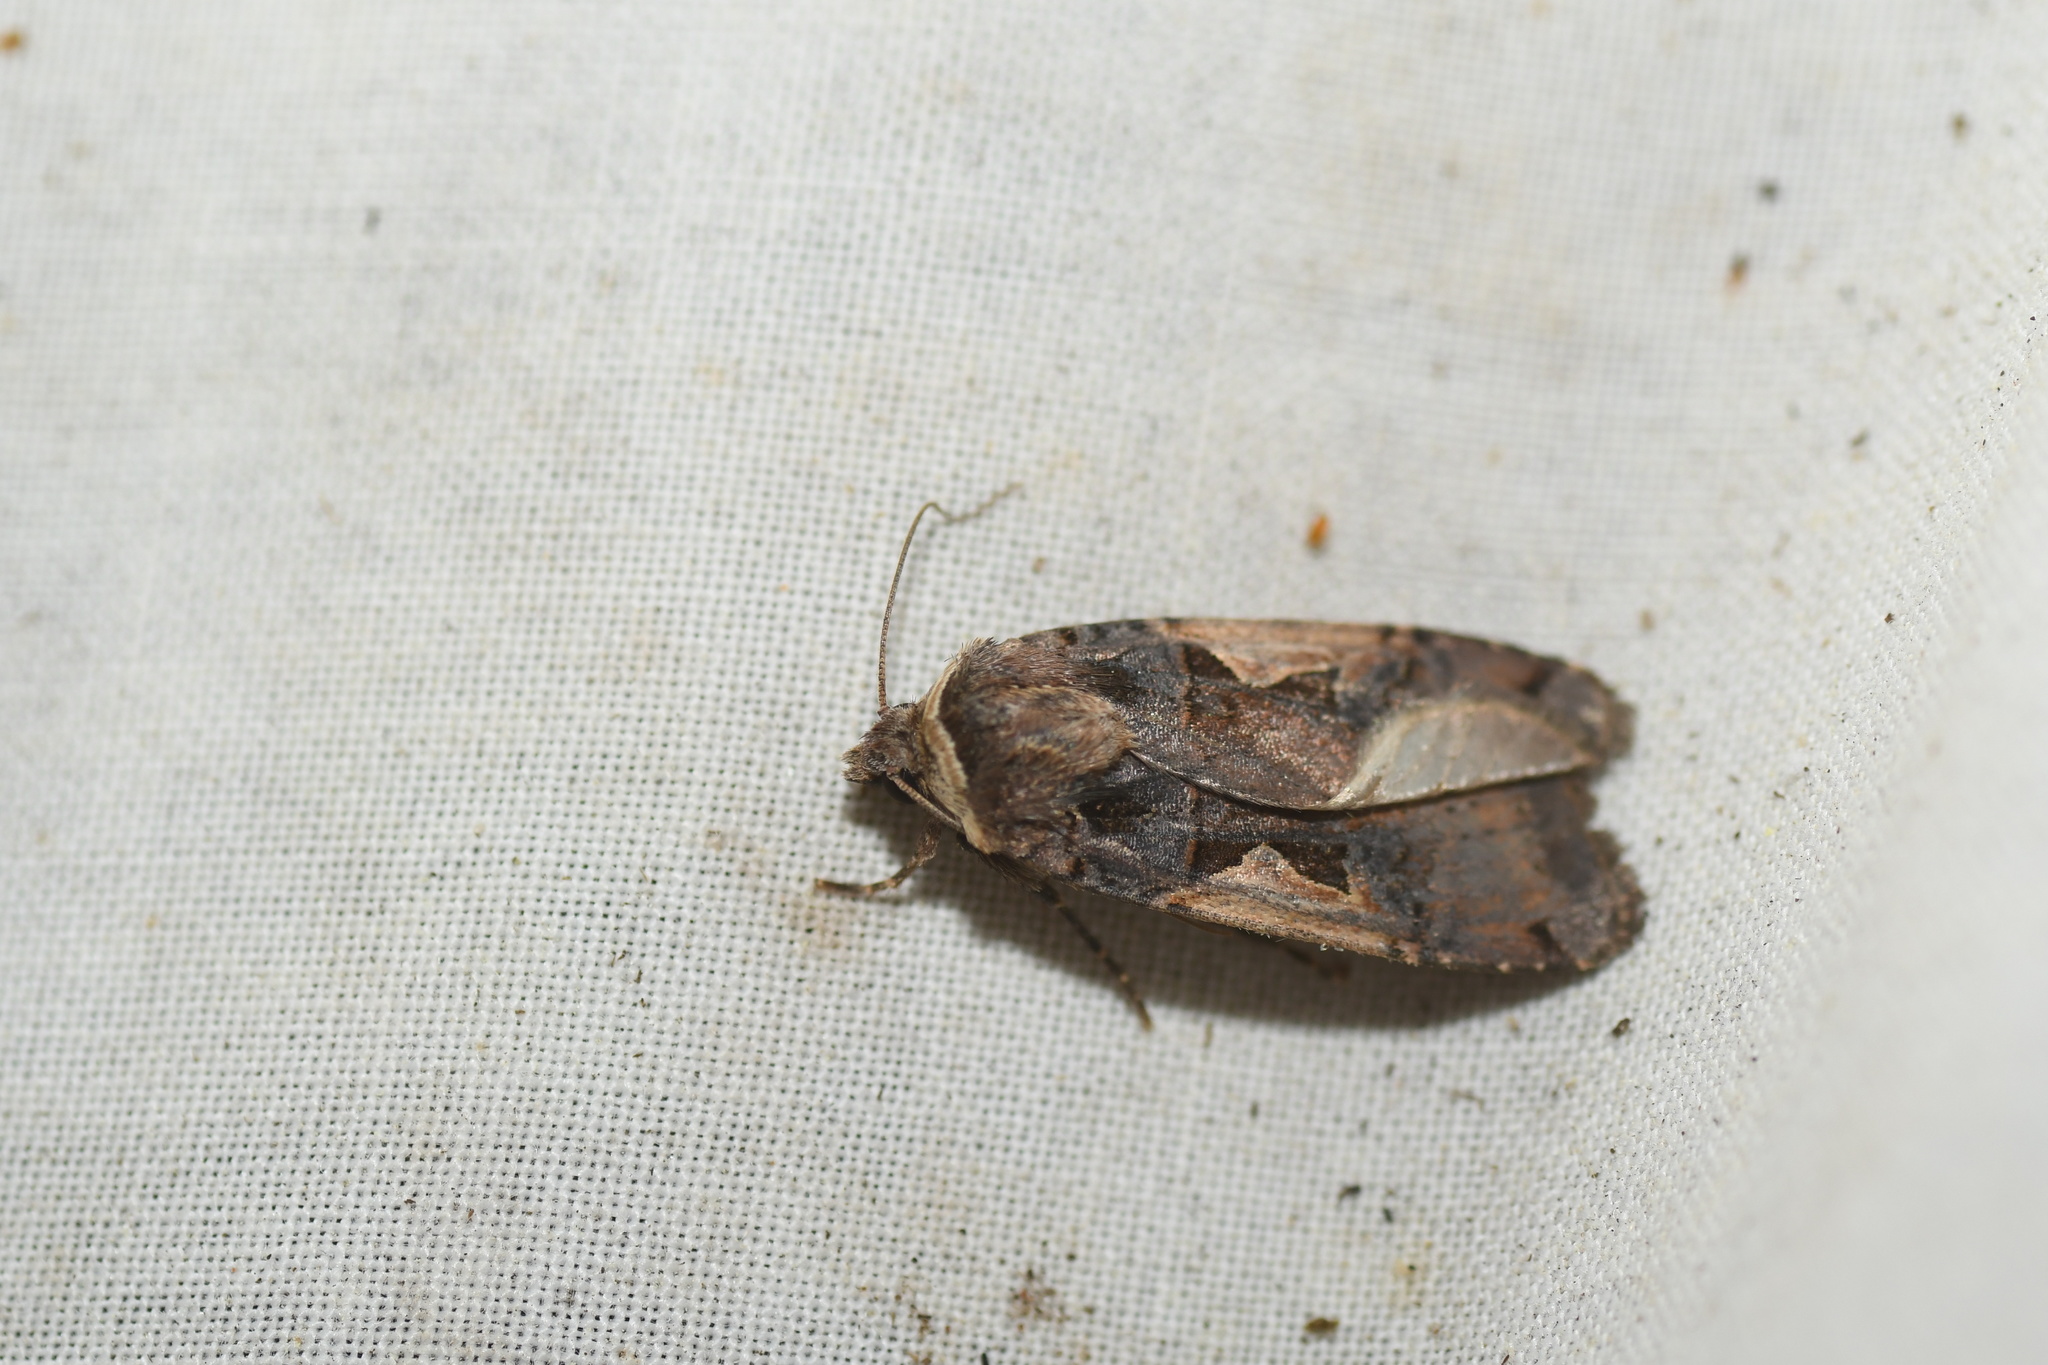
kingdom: Animalia
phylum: Arthropoda
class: Insecta
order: Lepidoptera
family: Noctuidae
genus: Xestia
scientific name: Xestia
